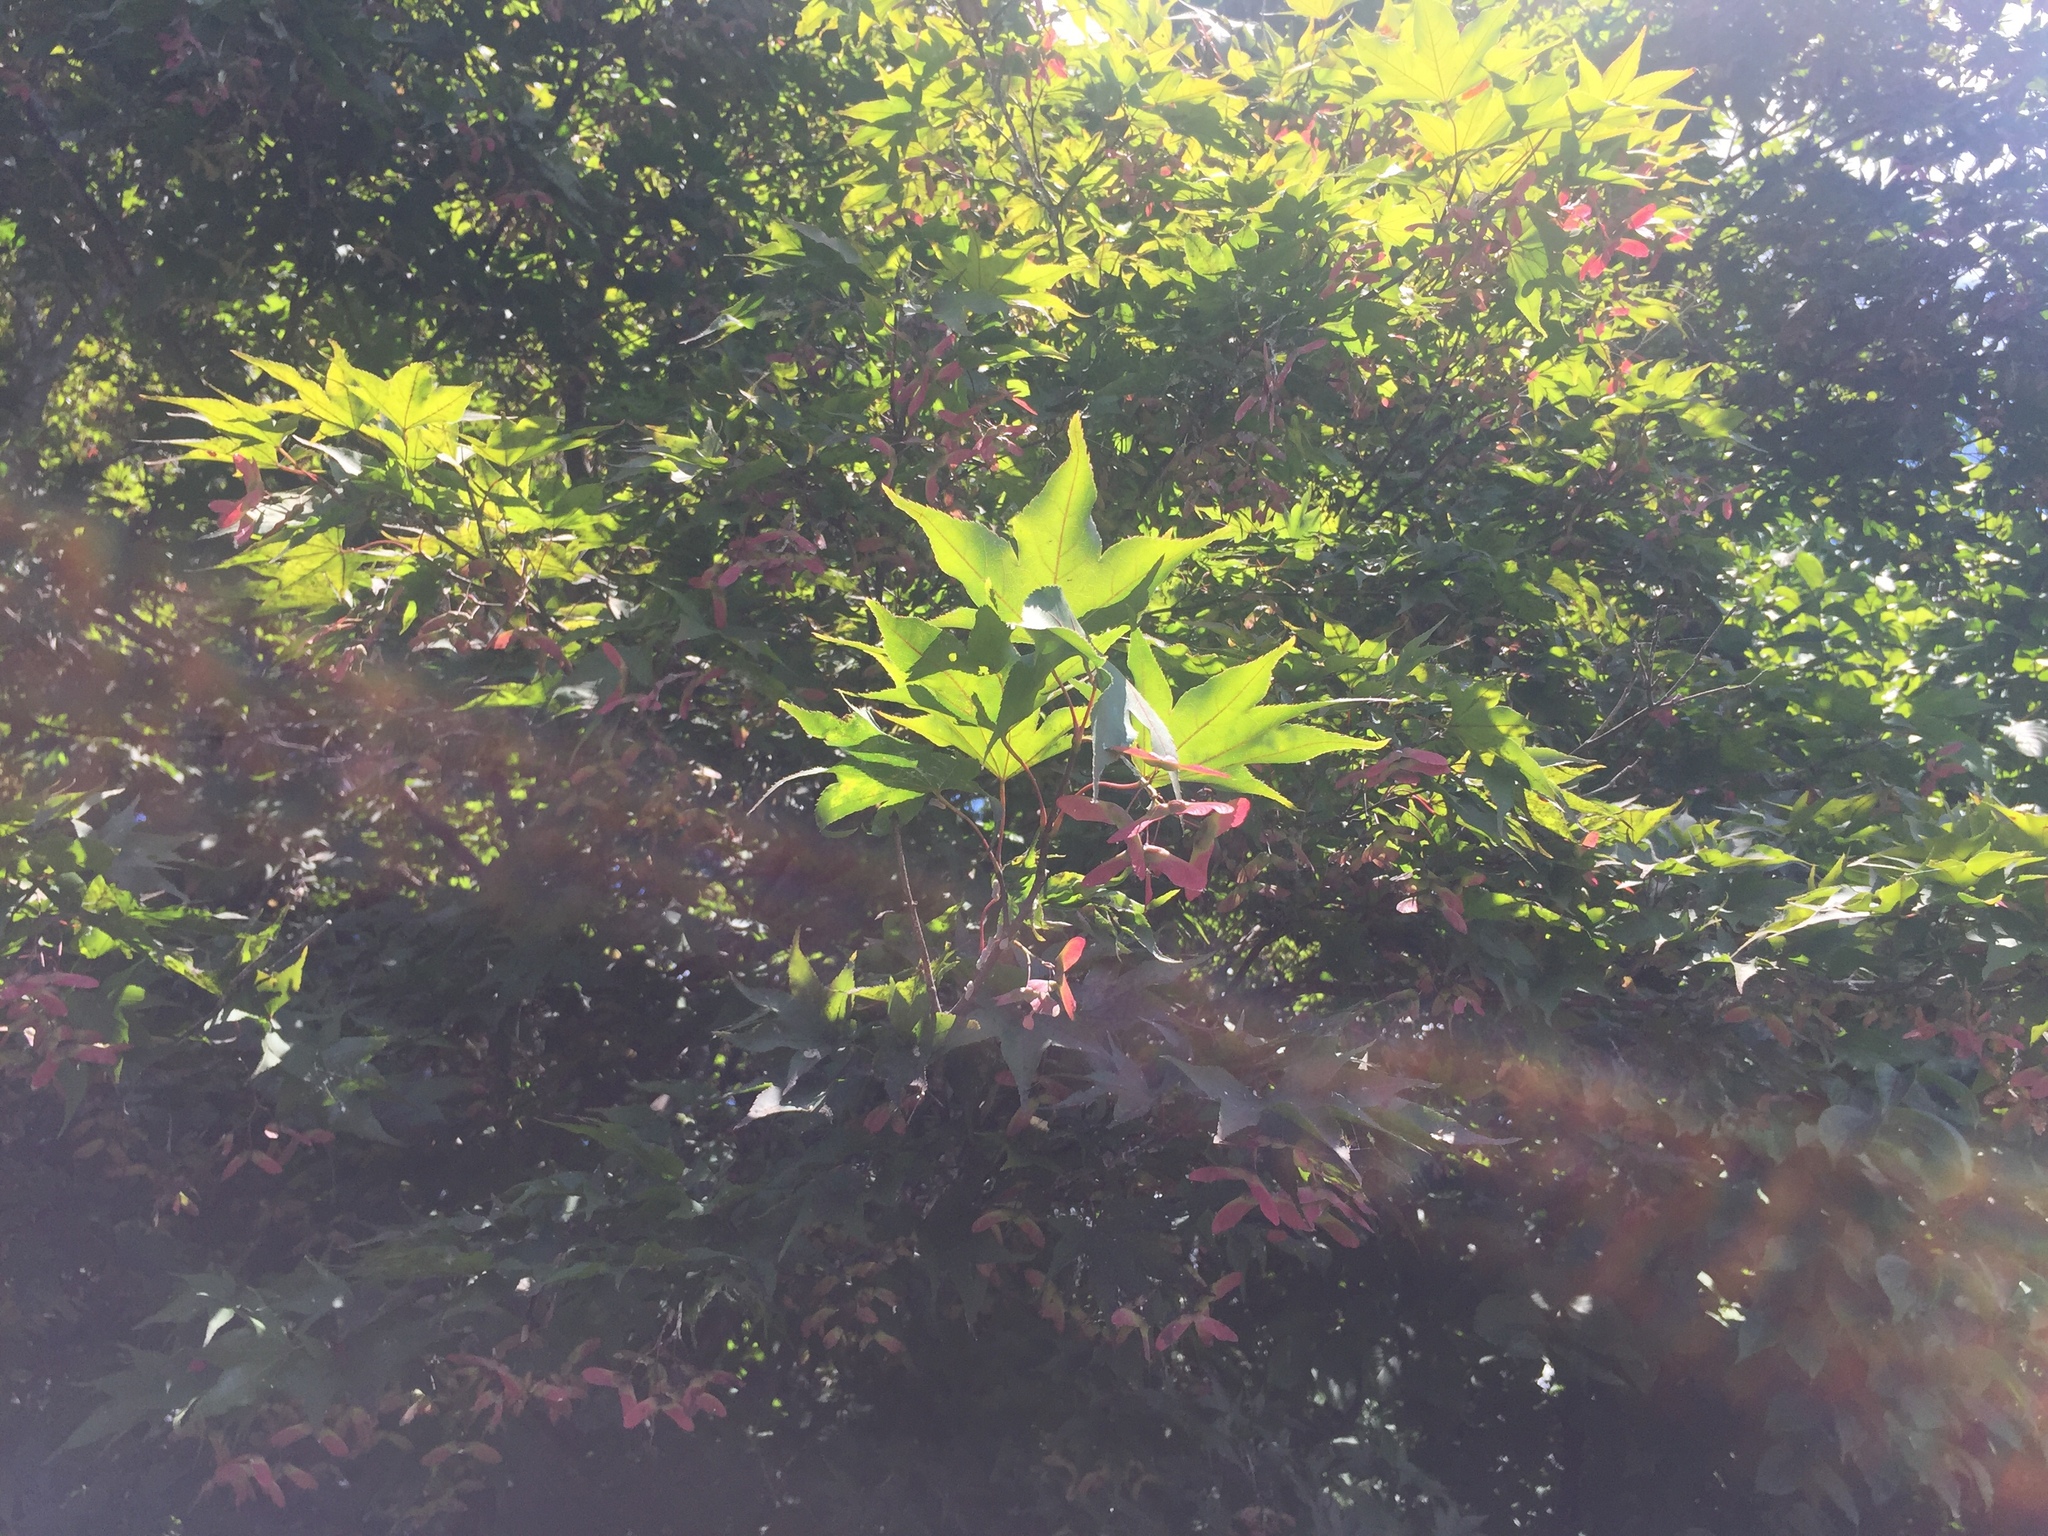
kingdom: Plantae
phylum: Tracheophyta
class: Magnoliopsida
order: Sapindales
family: Sapindaceae
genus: Acer
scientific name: Acer palmatum
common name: Japanese maple
